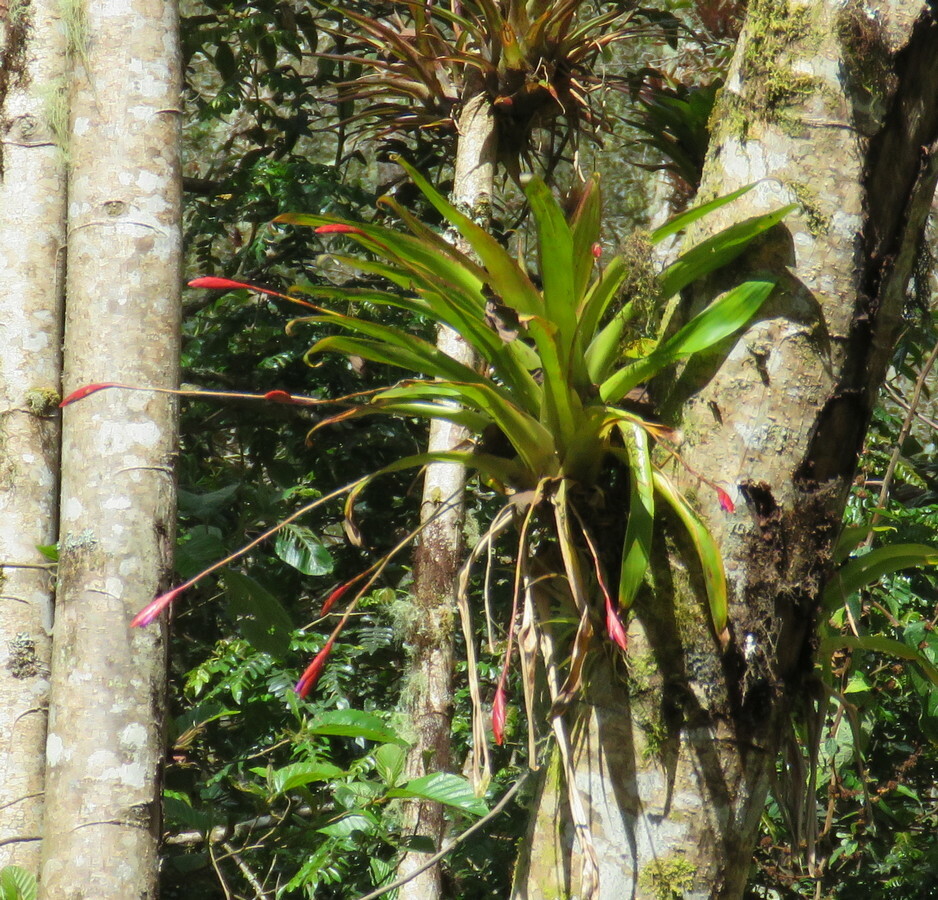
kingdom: Plantae
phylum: Tracheophyta
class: Liliopsida
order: Poales
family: Bromeliaceae
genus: Tillandsia
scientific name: Tillandsia complanata
